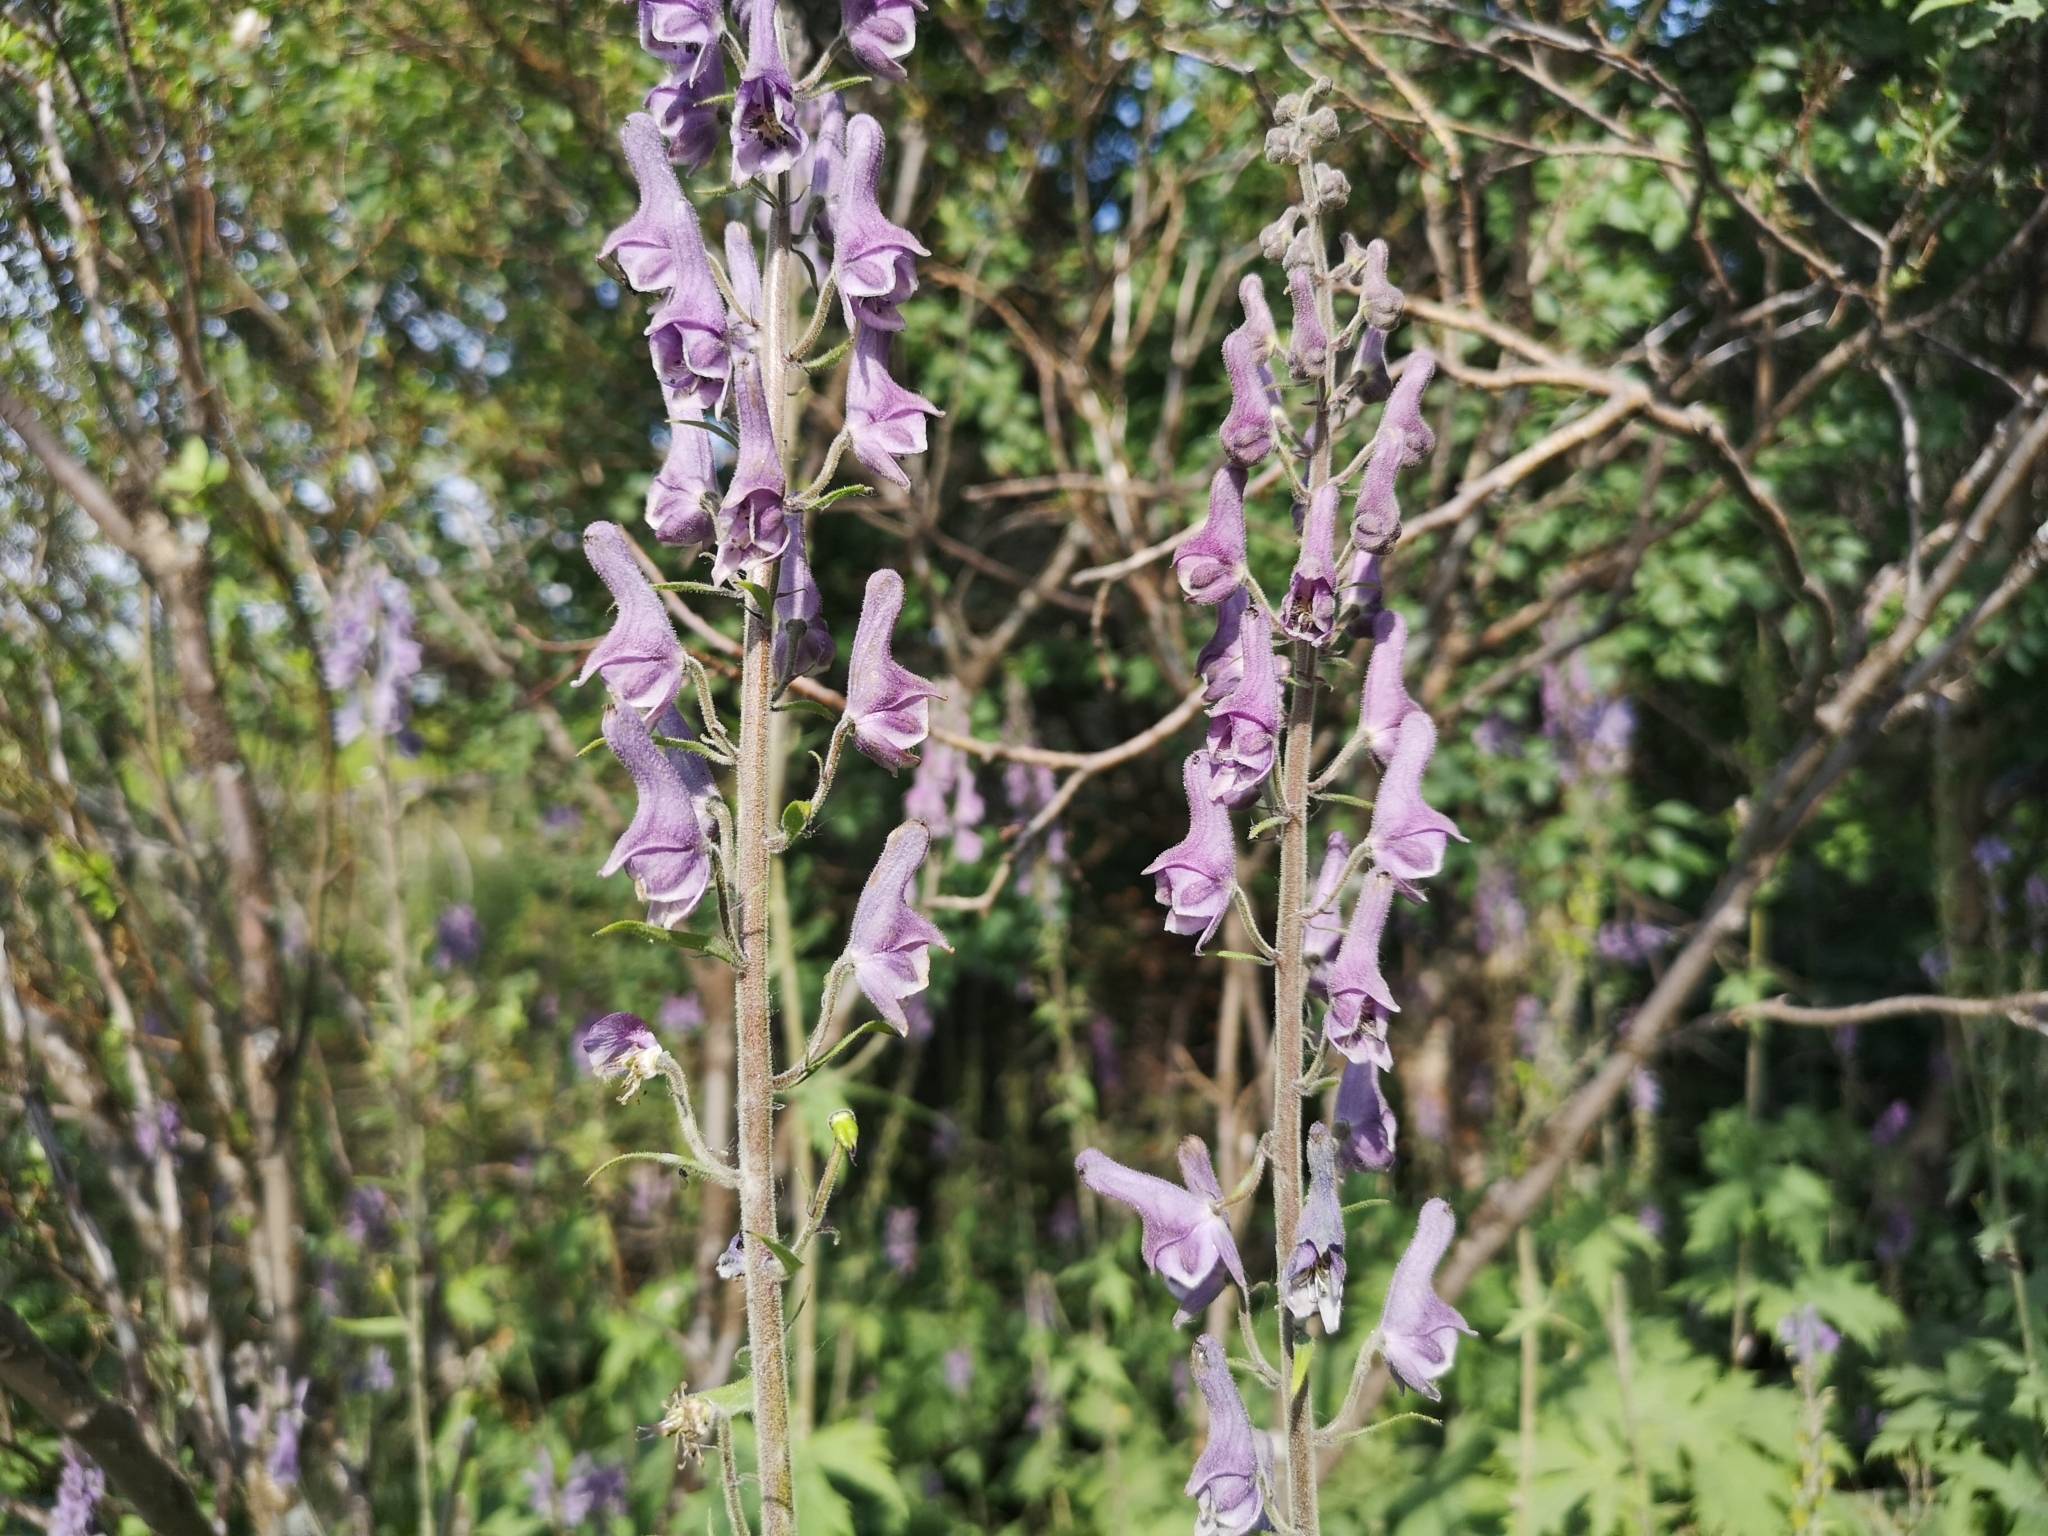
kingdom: Plantae
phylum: Tracheophyta
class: Magnoliopsida
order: Ranunculales
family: Ranunculaceae
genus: Aconitum
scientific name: Aconitum septentrionale
